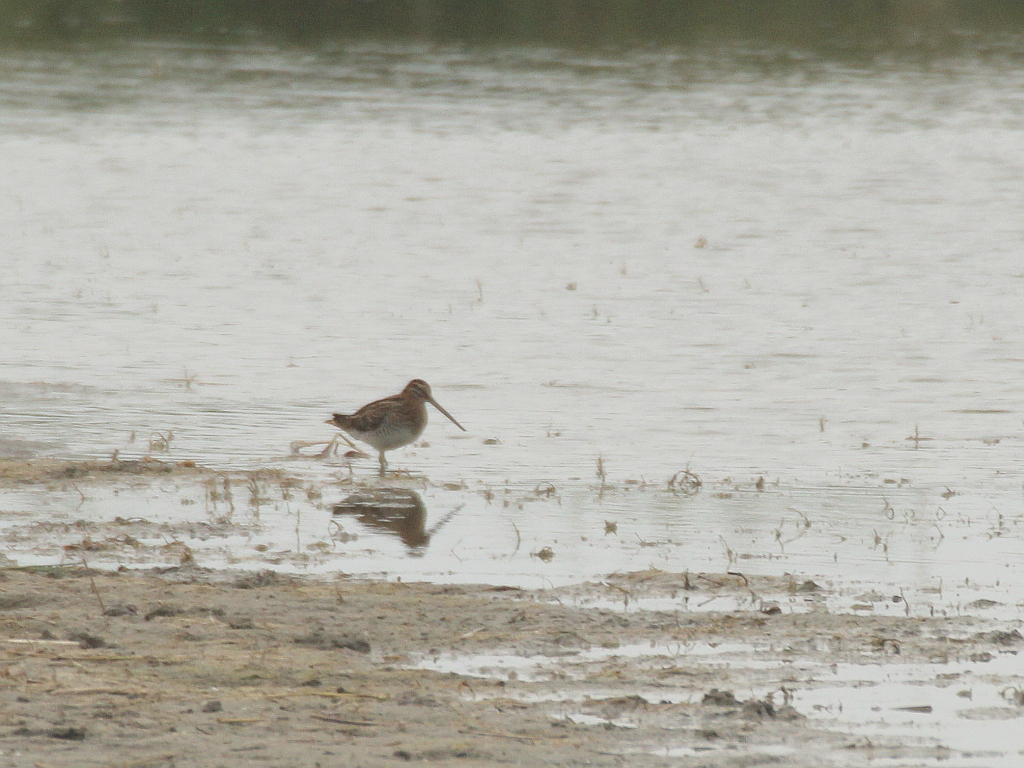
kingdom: Animalia
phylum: Chordata
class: Aves
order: Charadriiformes
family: Scolopacidae
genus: Gallinago
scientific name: Gallinago gallinago
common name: Common snipe
